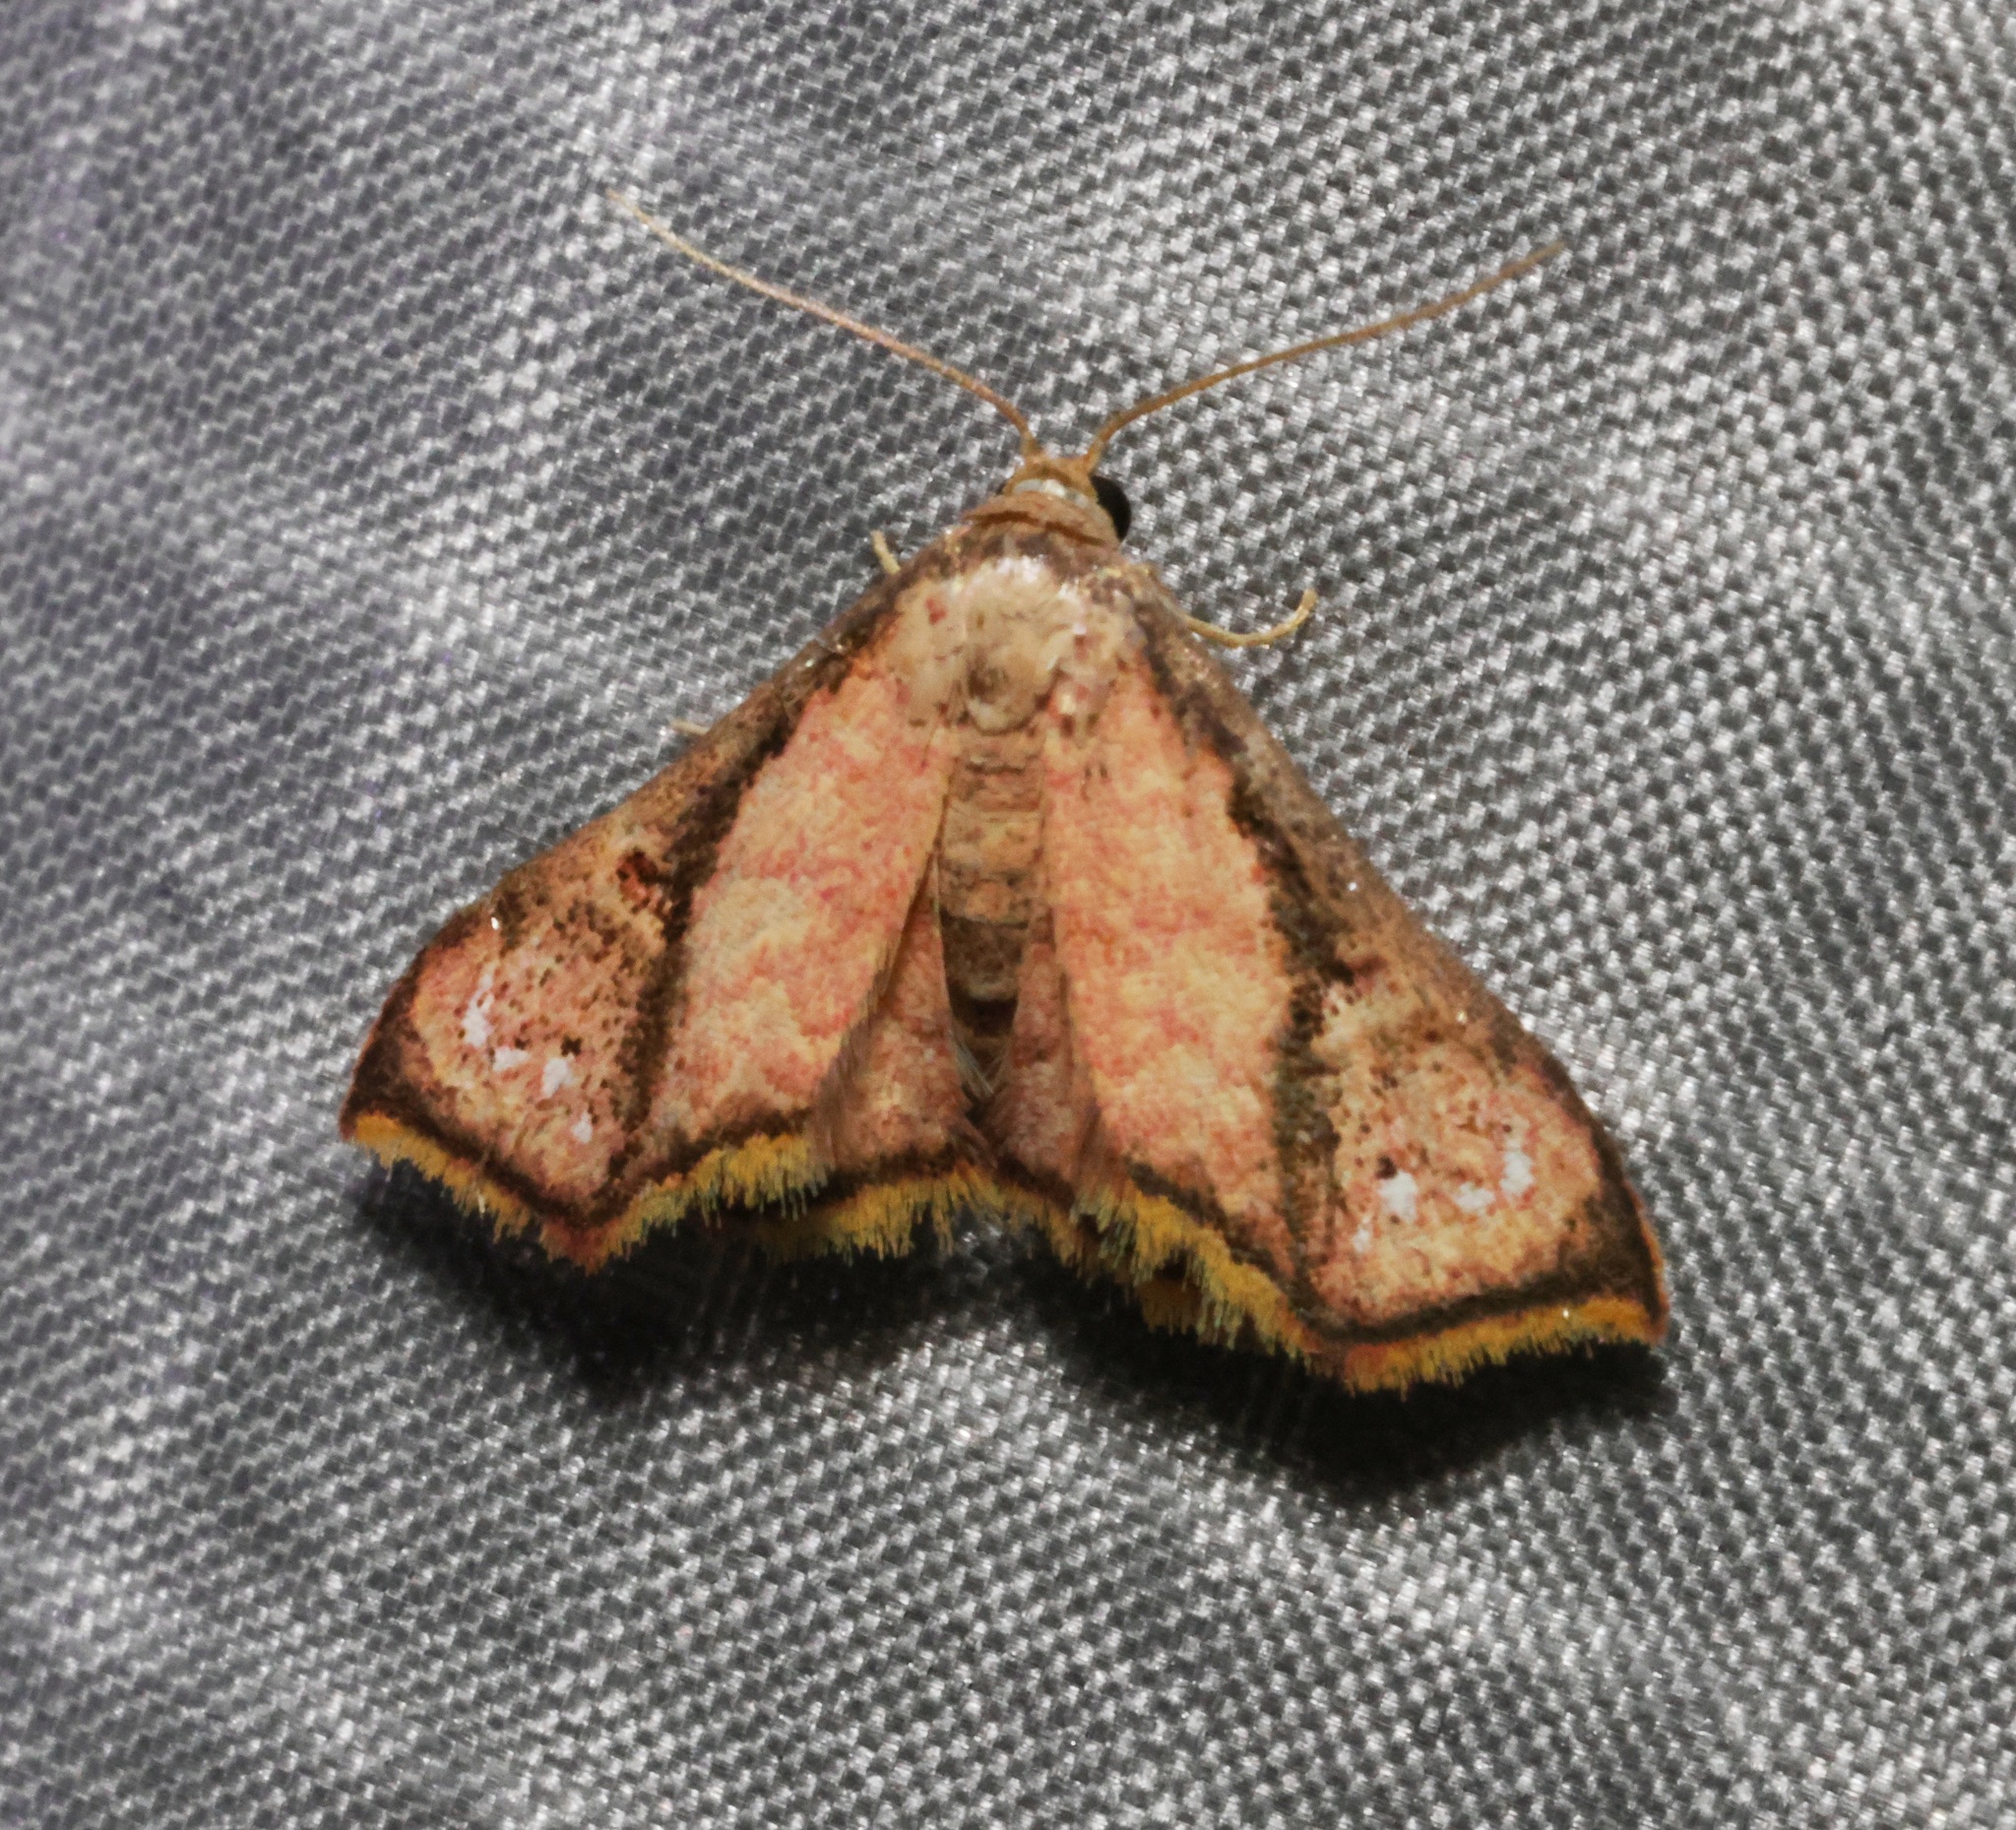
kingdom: Animalia
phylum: Arthropoda
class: Insecta
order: Lepidoptera
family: Noctuidae
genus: Enispa
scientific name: Enispa elataria
